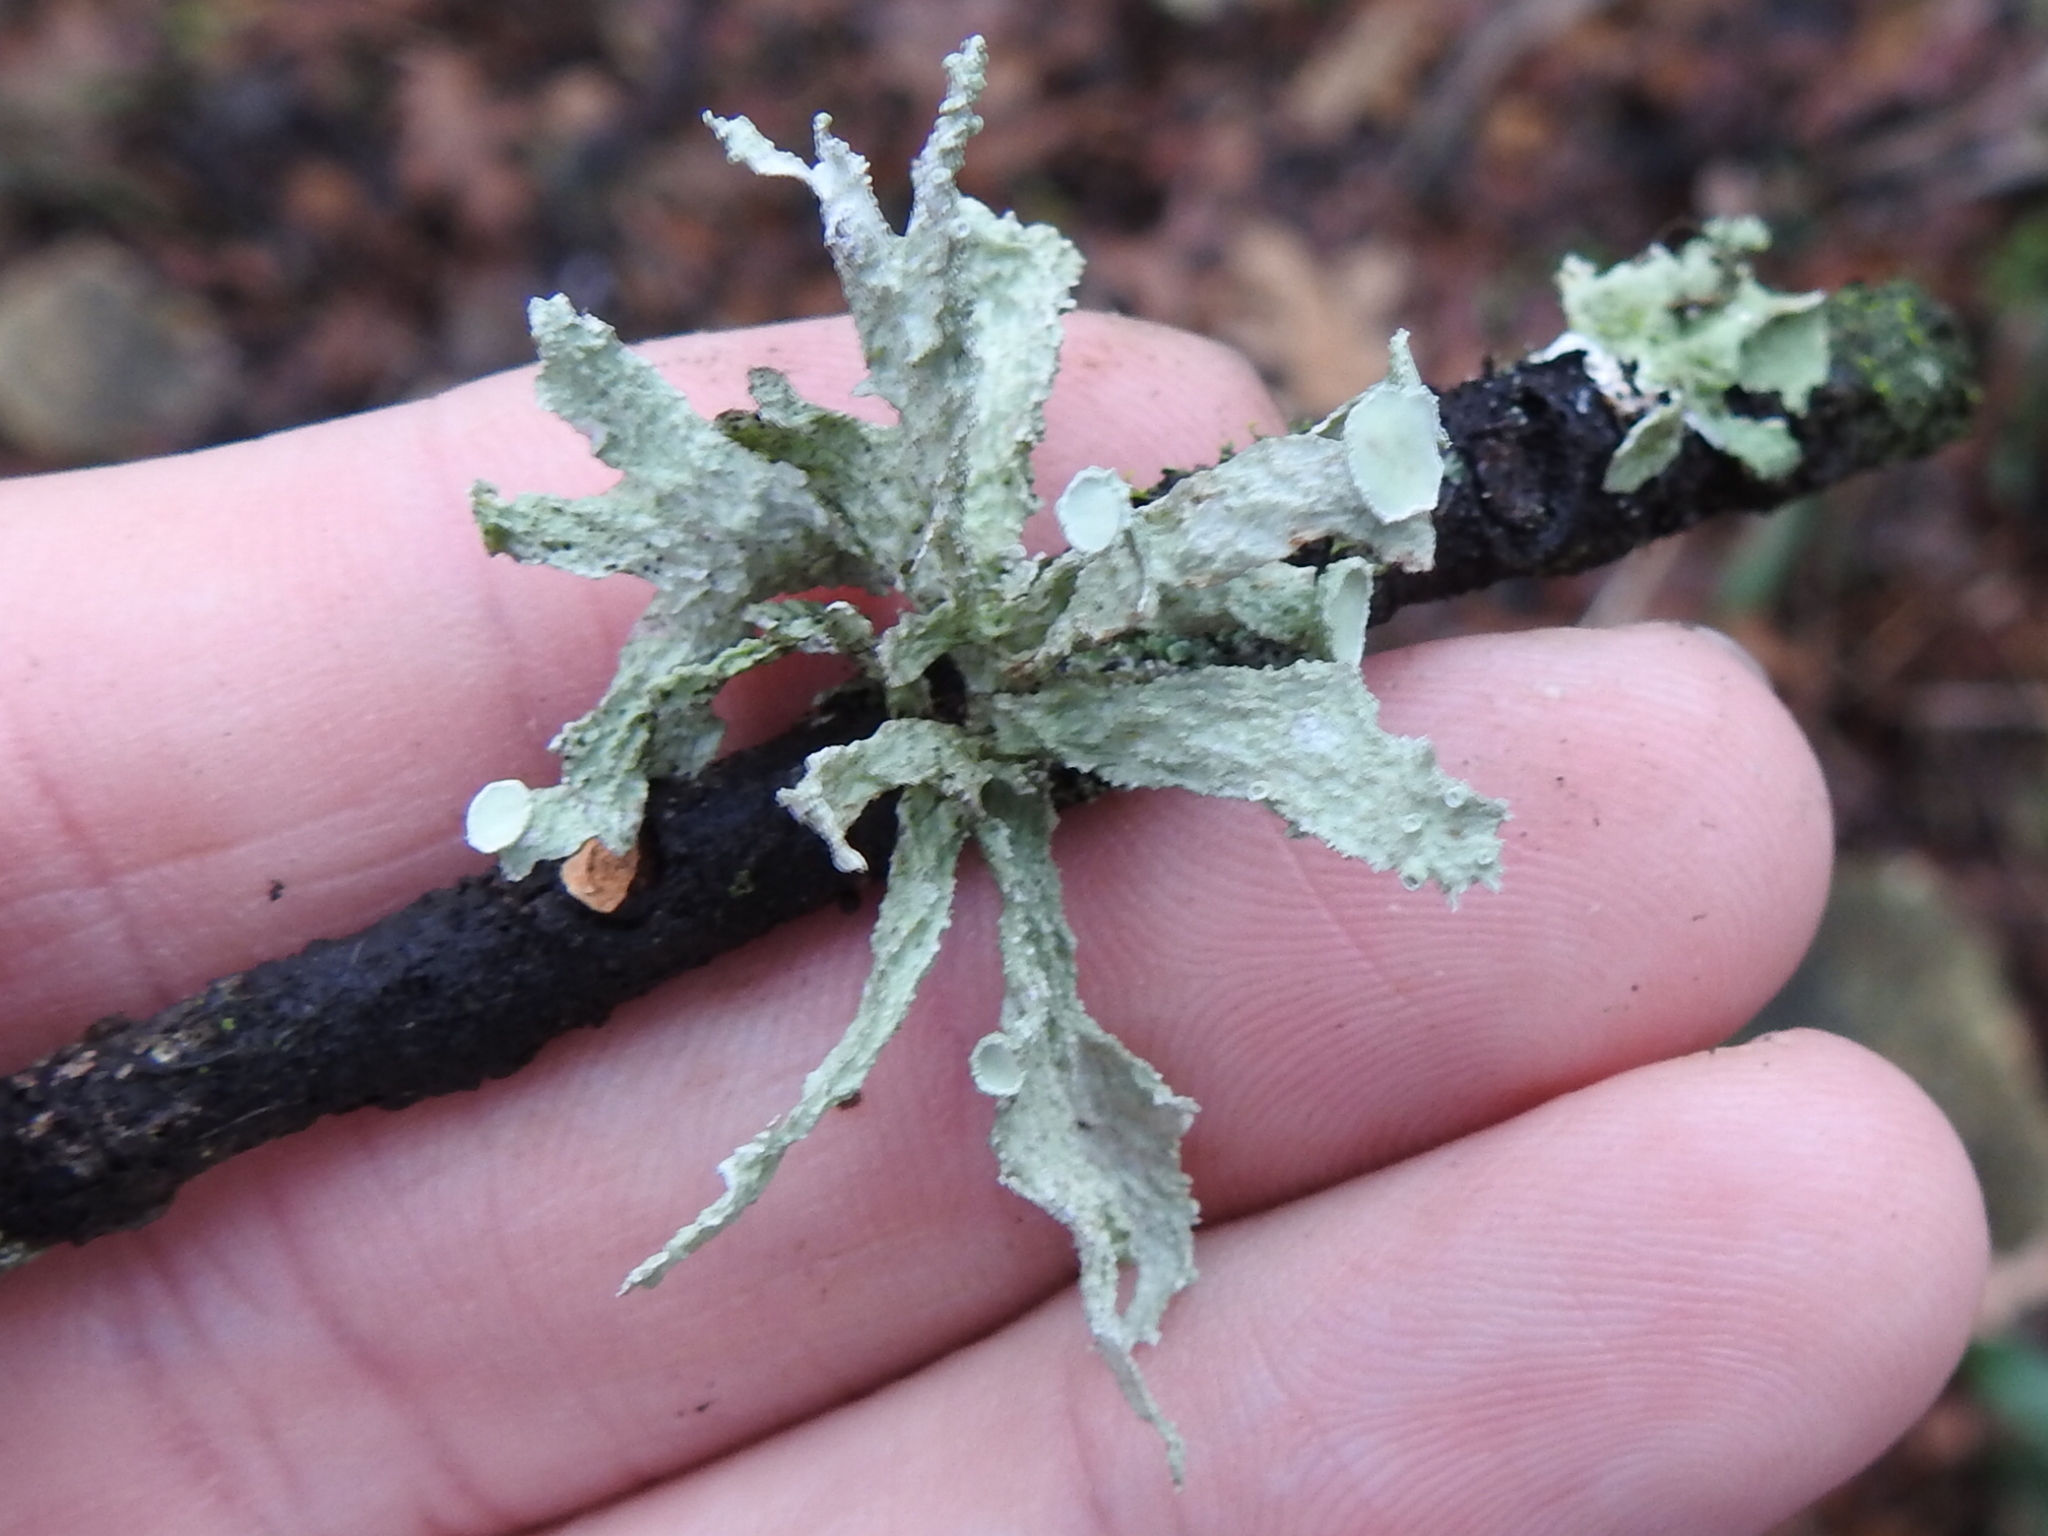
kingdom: Fungi
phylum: Ascomycota
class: Lecanoromycetes
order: Lecanorales
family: Ramalinaceae
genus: Ramalina
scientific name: Ramalina celastri
